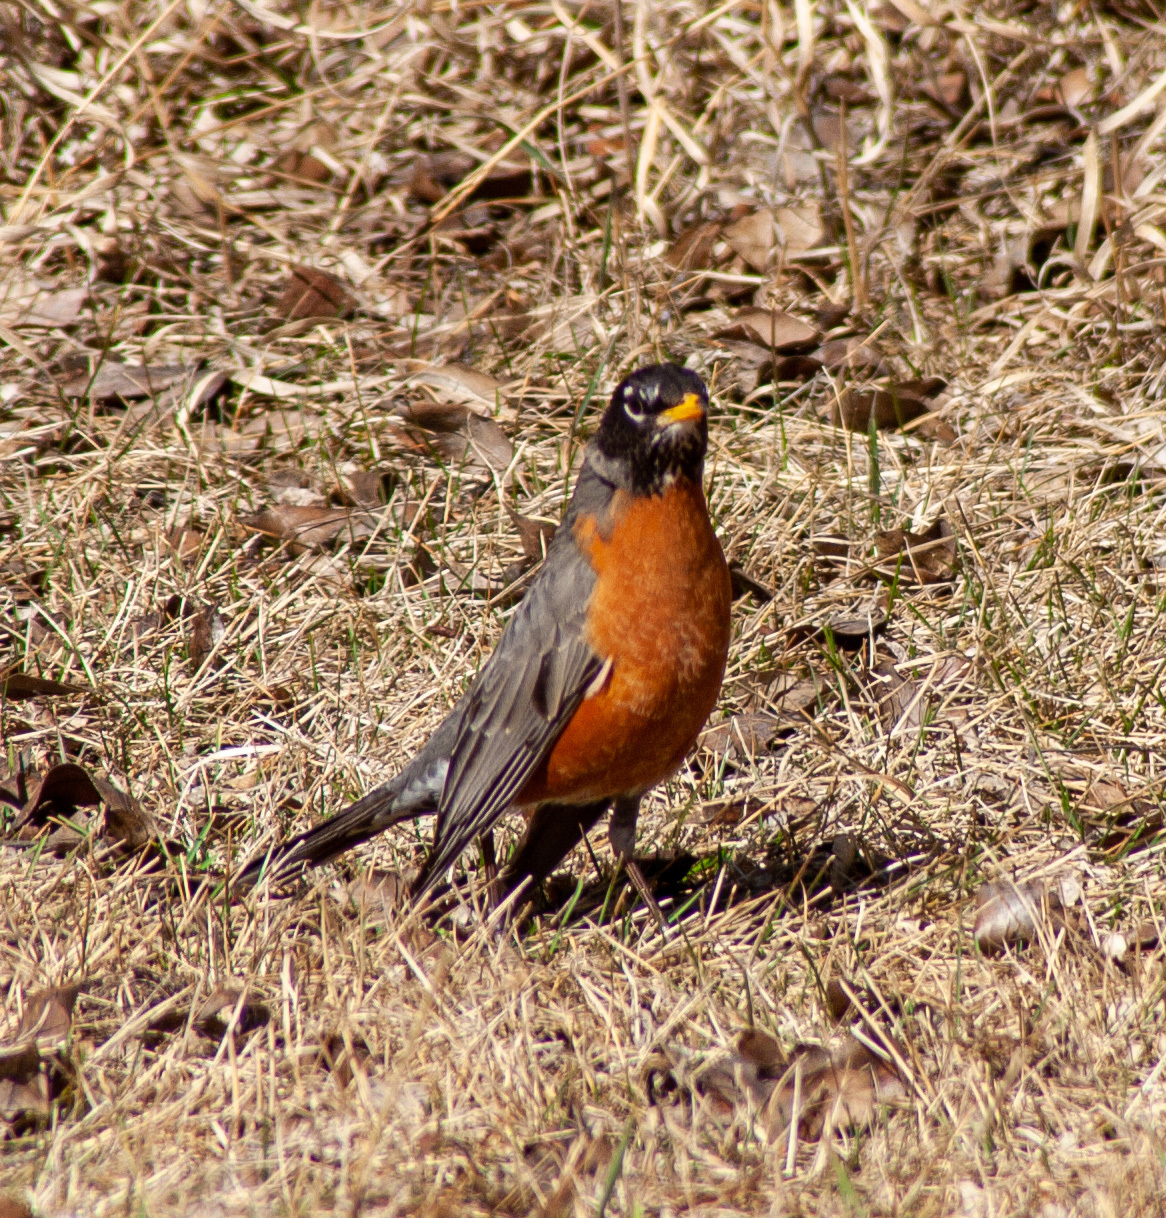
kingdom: Animalia
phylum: Chordata
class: Aves
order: Passeriformes
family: Turdidae
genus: Turdus
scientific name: Turdus migratorius
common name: American robin
